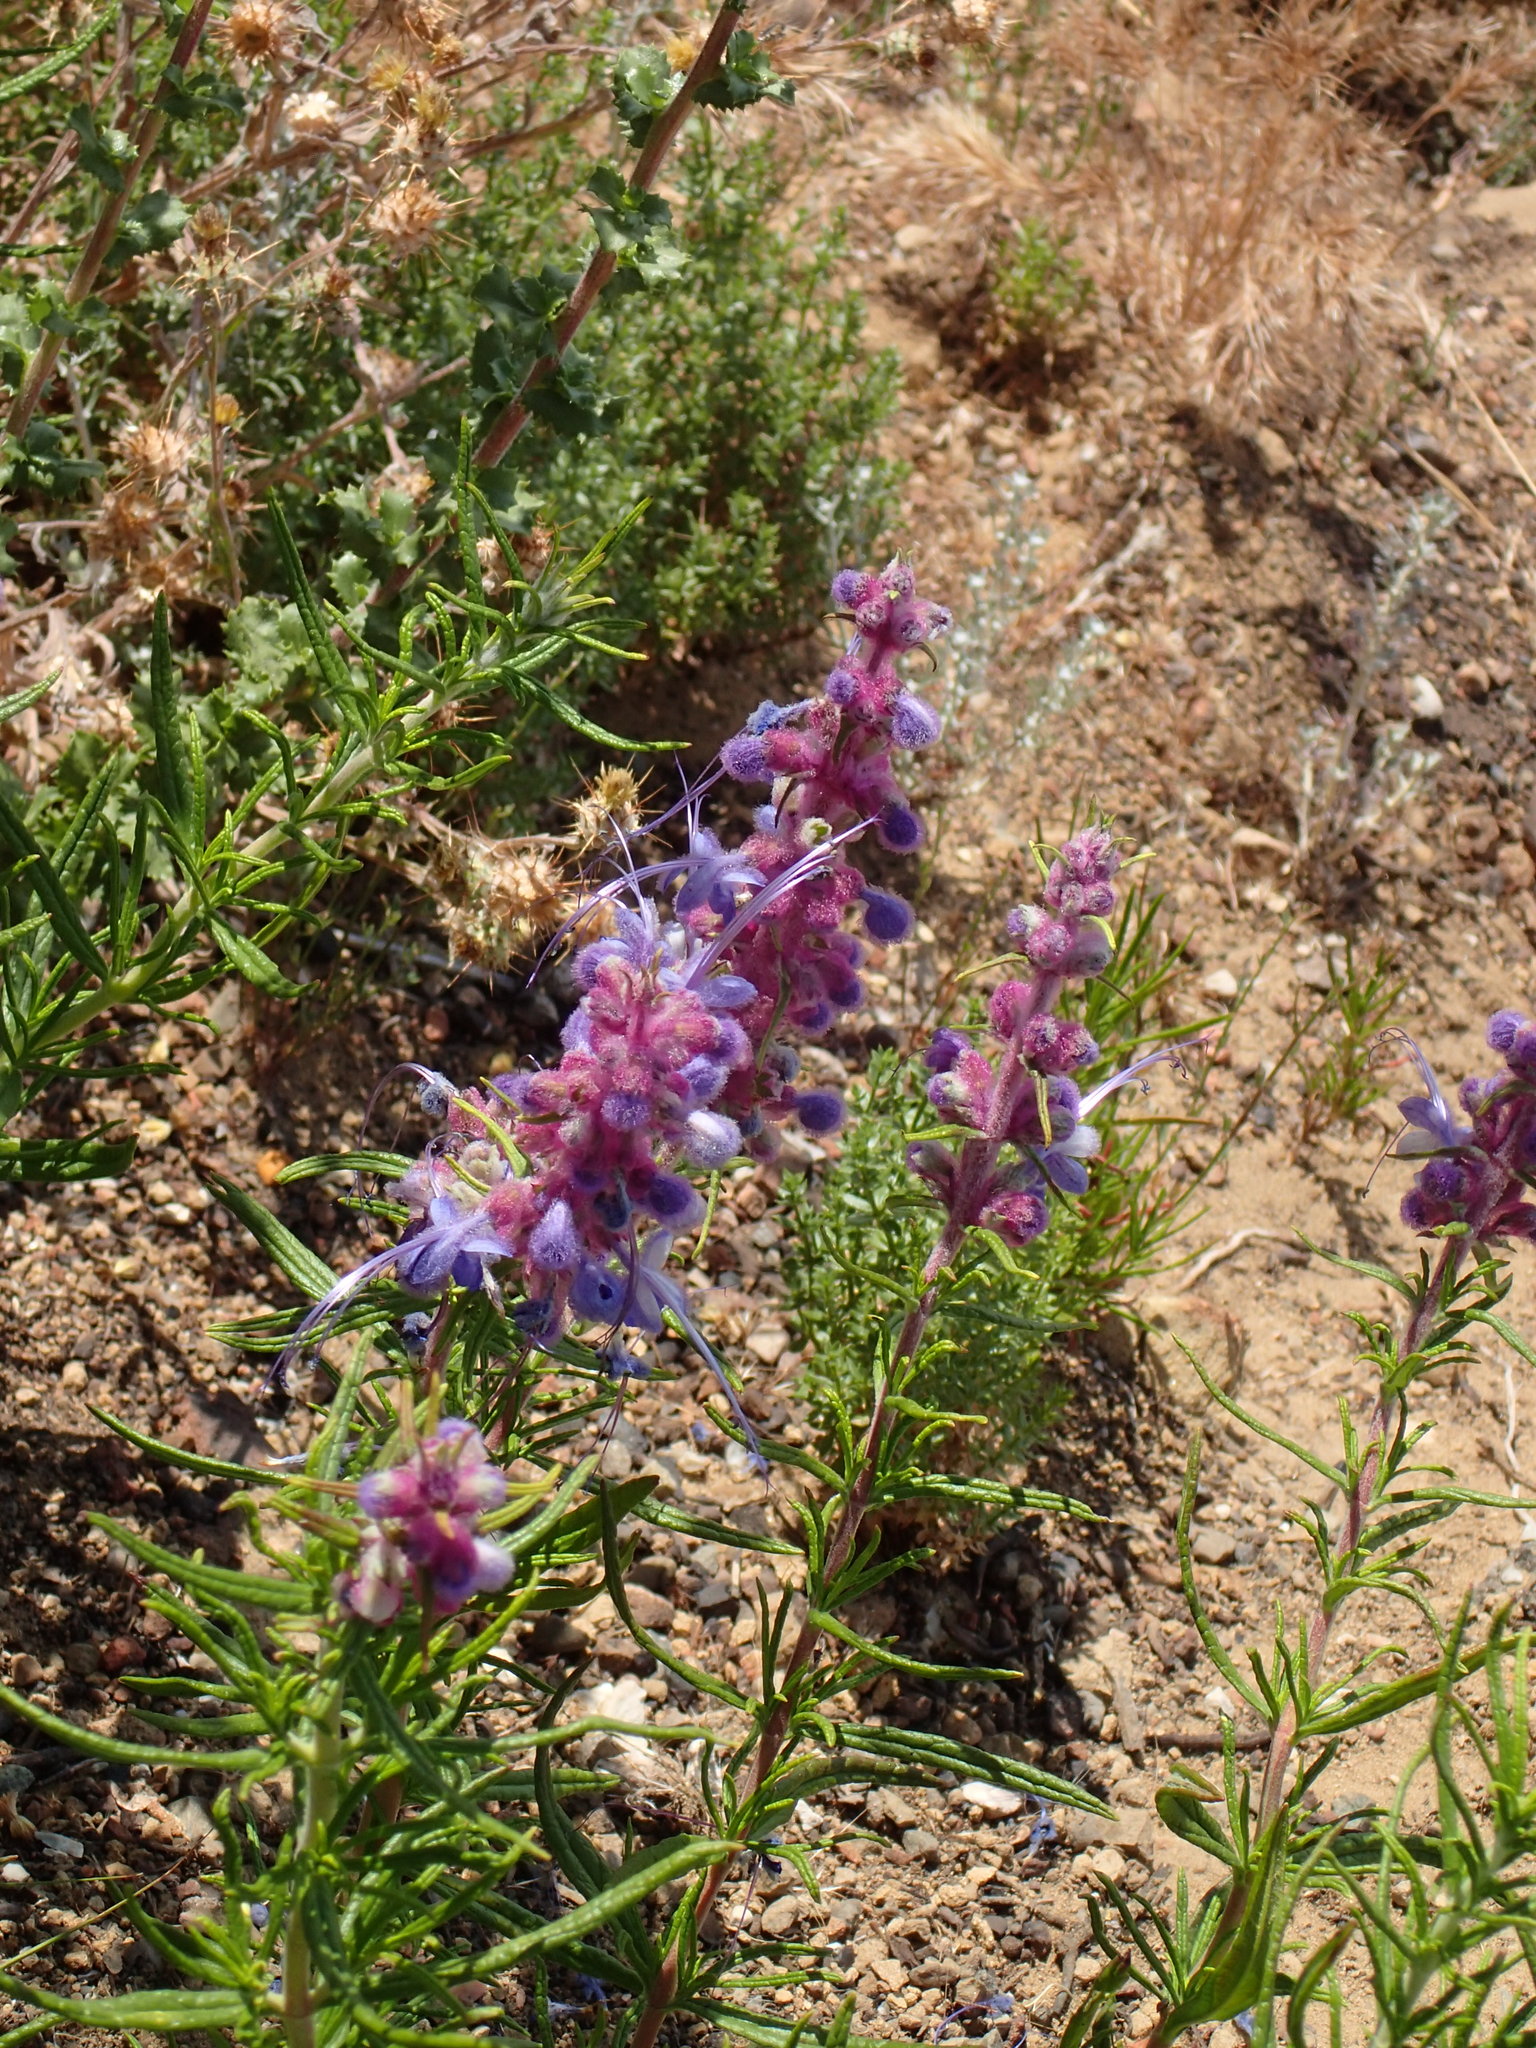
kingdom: Plantae
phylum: Tracheophyta
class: Magnoliopsida
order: Lamiales
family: Lamiaceae
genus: Trichostema
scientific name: Trichostema lanatum
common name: Woolly bluecurls
